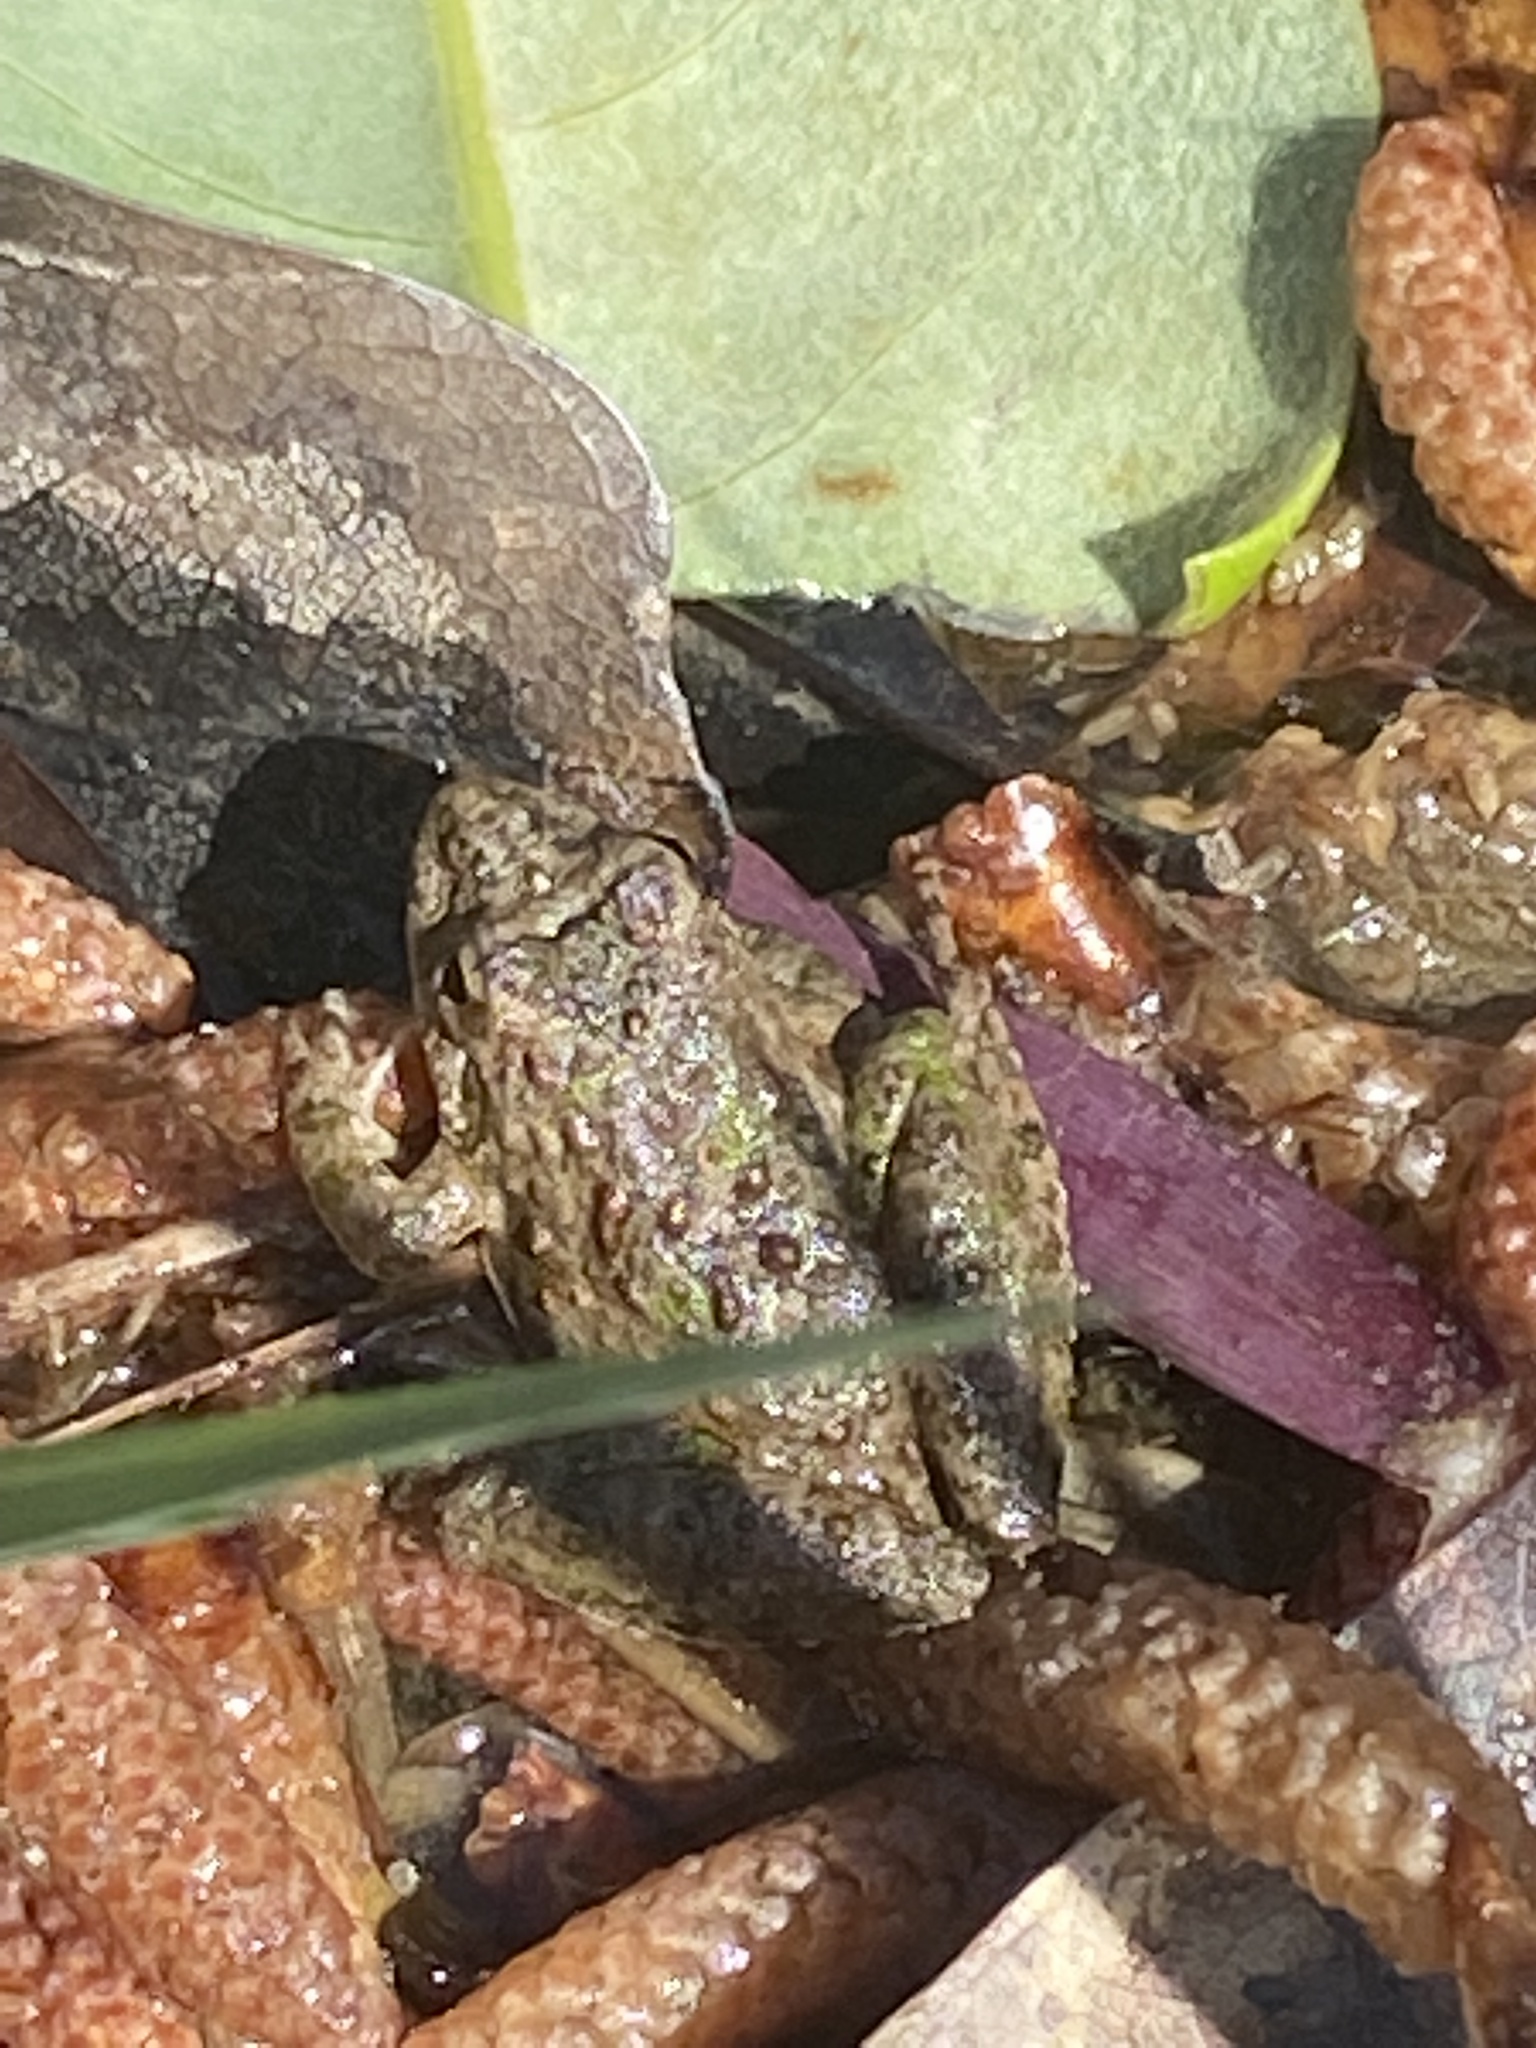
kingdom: Animalia
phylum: Chordata
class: Amphibia
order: Anura
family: Hylidae
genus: Acris
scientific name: Acris blanchardi
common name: Blanchard's cricket frog
